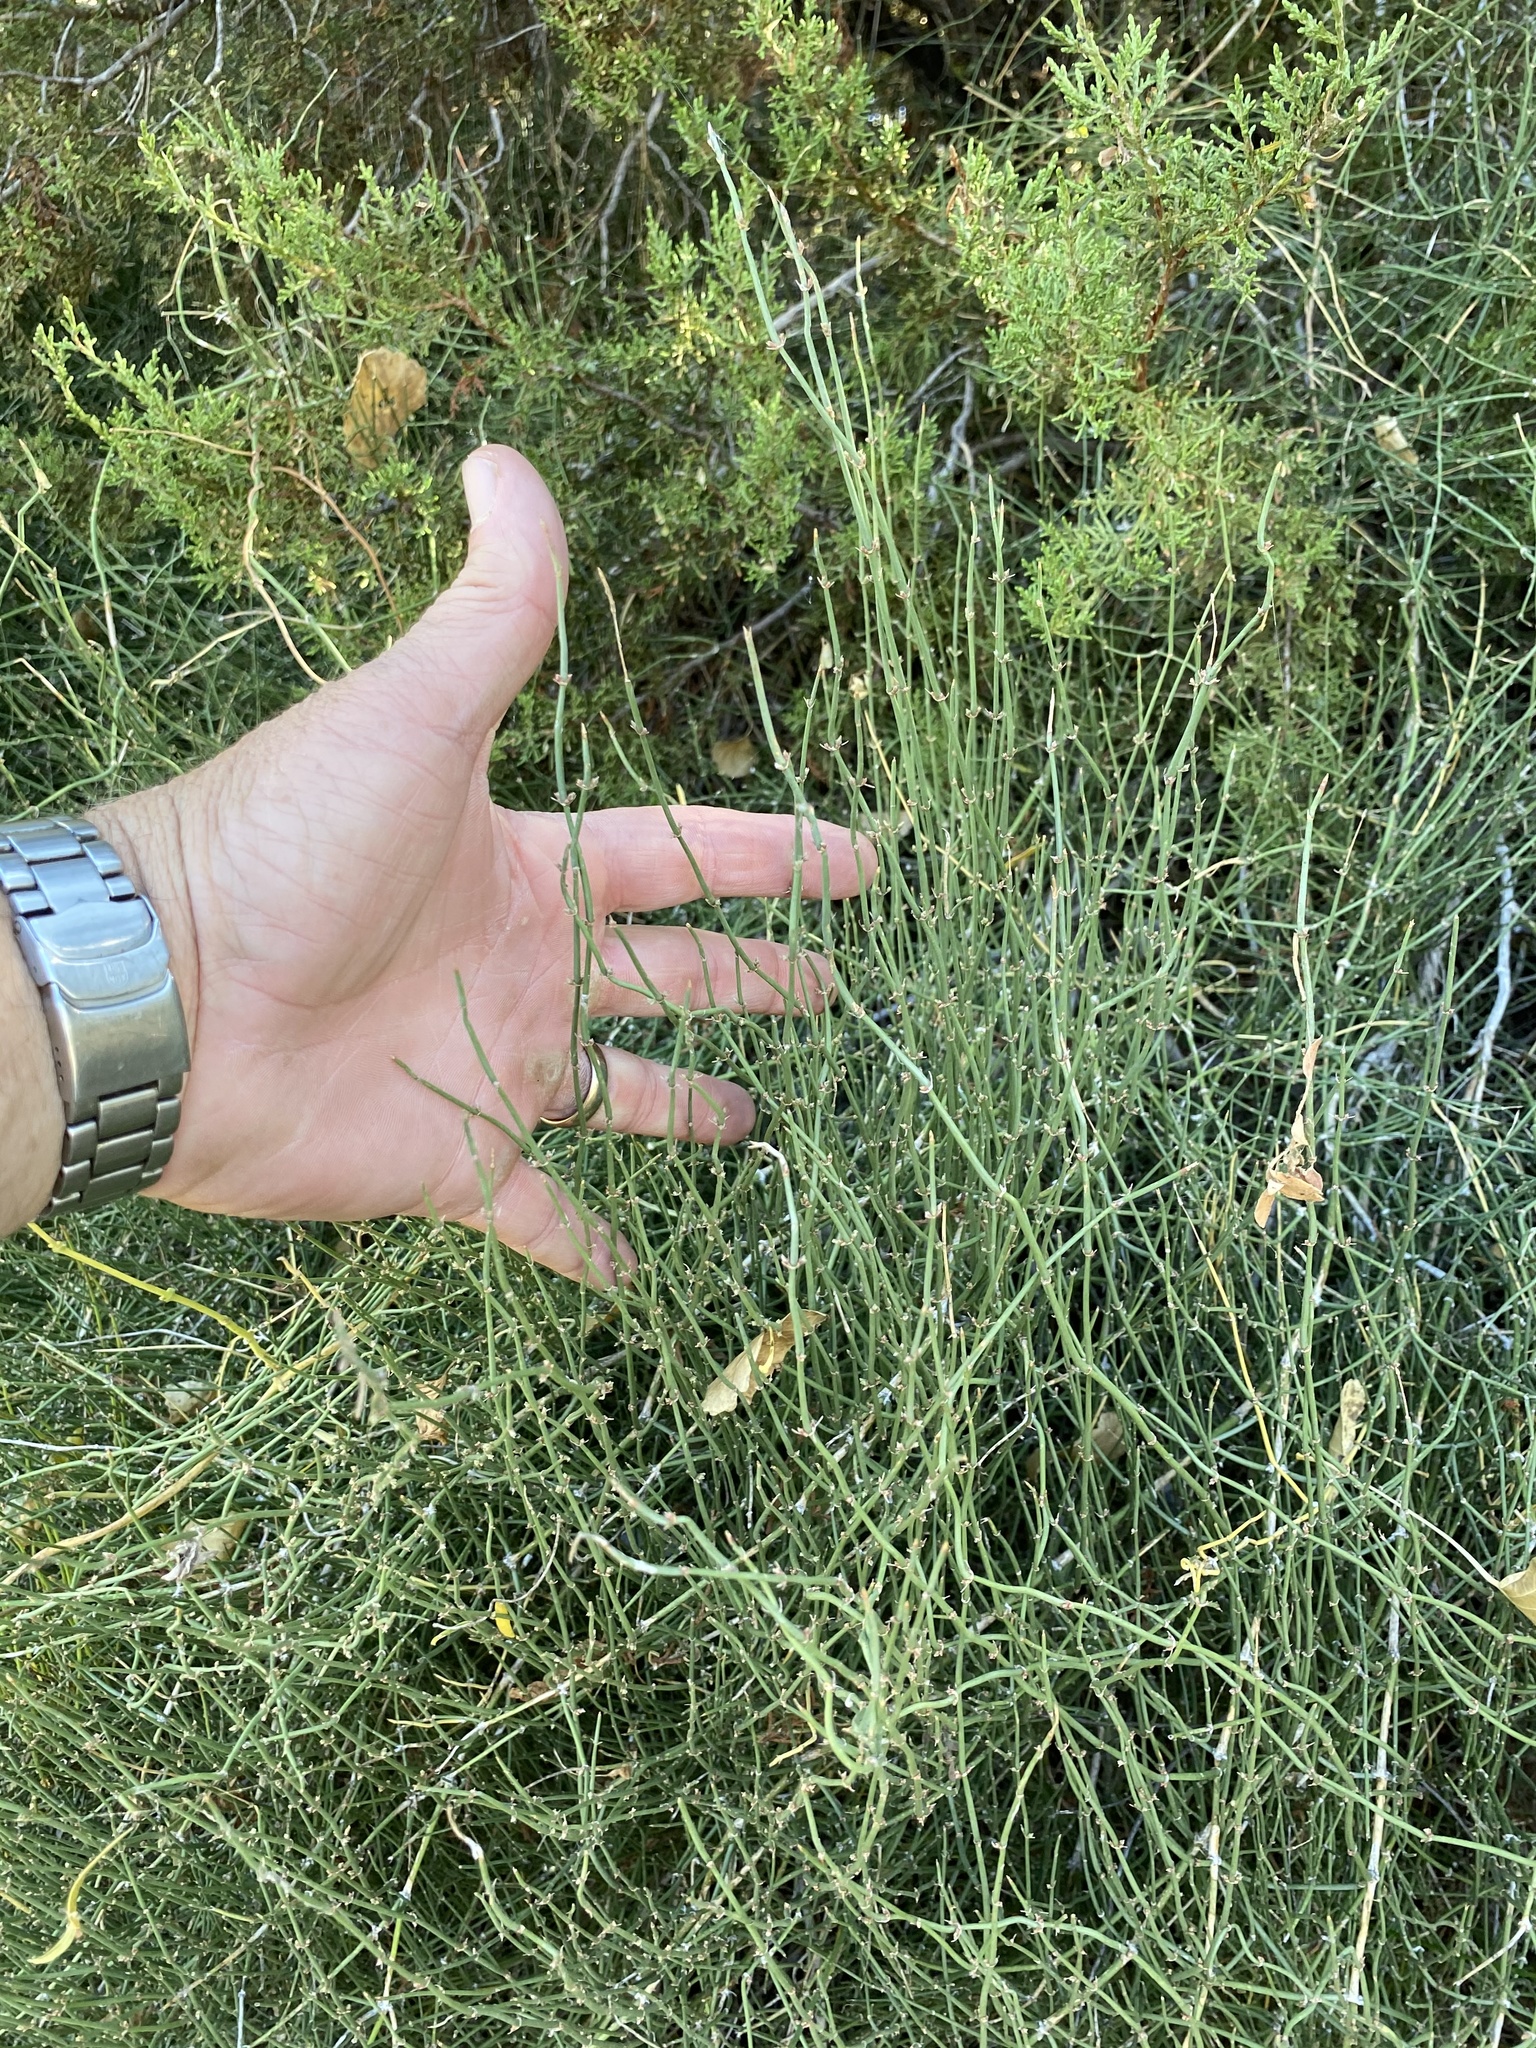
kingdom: Plantae
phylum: Tracheophyta
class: Gnetopsida
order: Ephedrales
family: Ephedraceae
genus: Ephedra
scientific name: Ephedra antisyphilitica
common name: Clipweed
